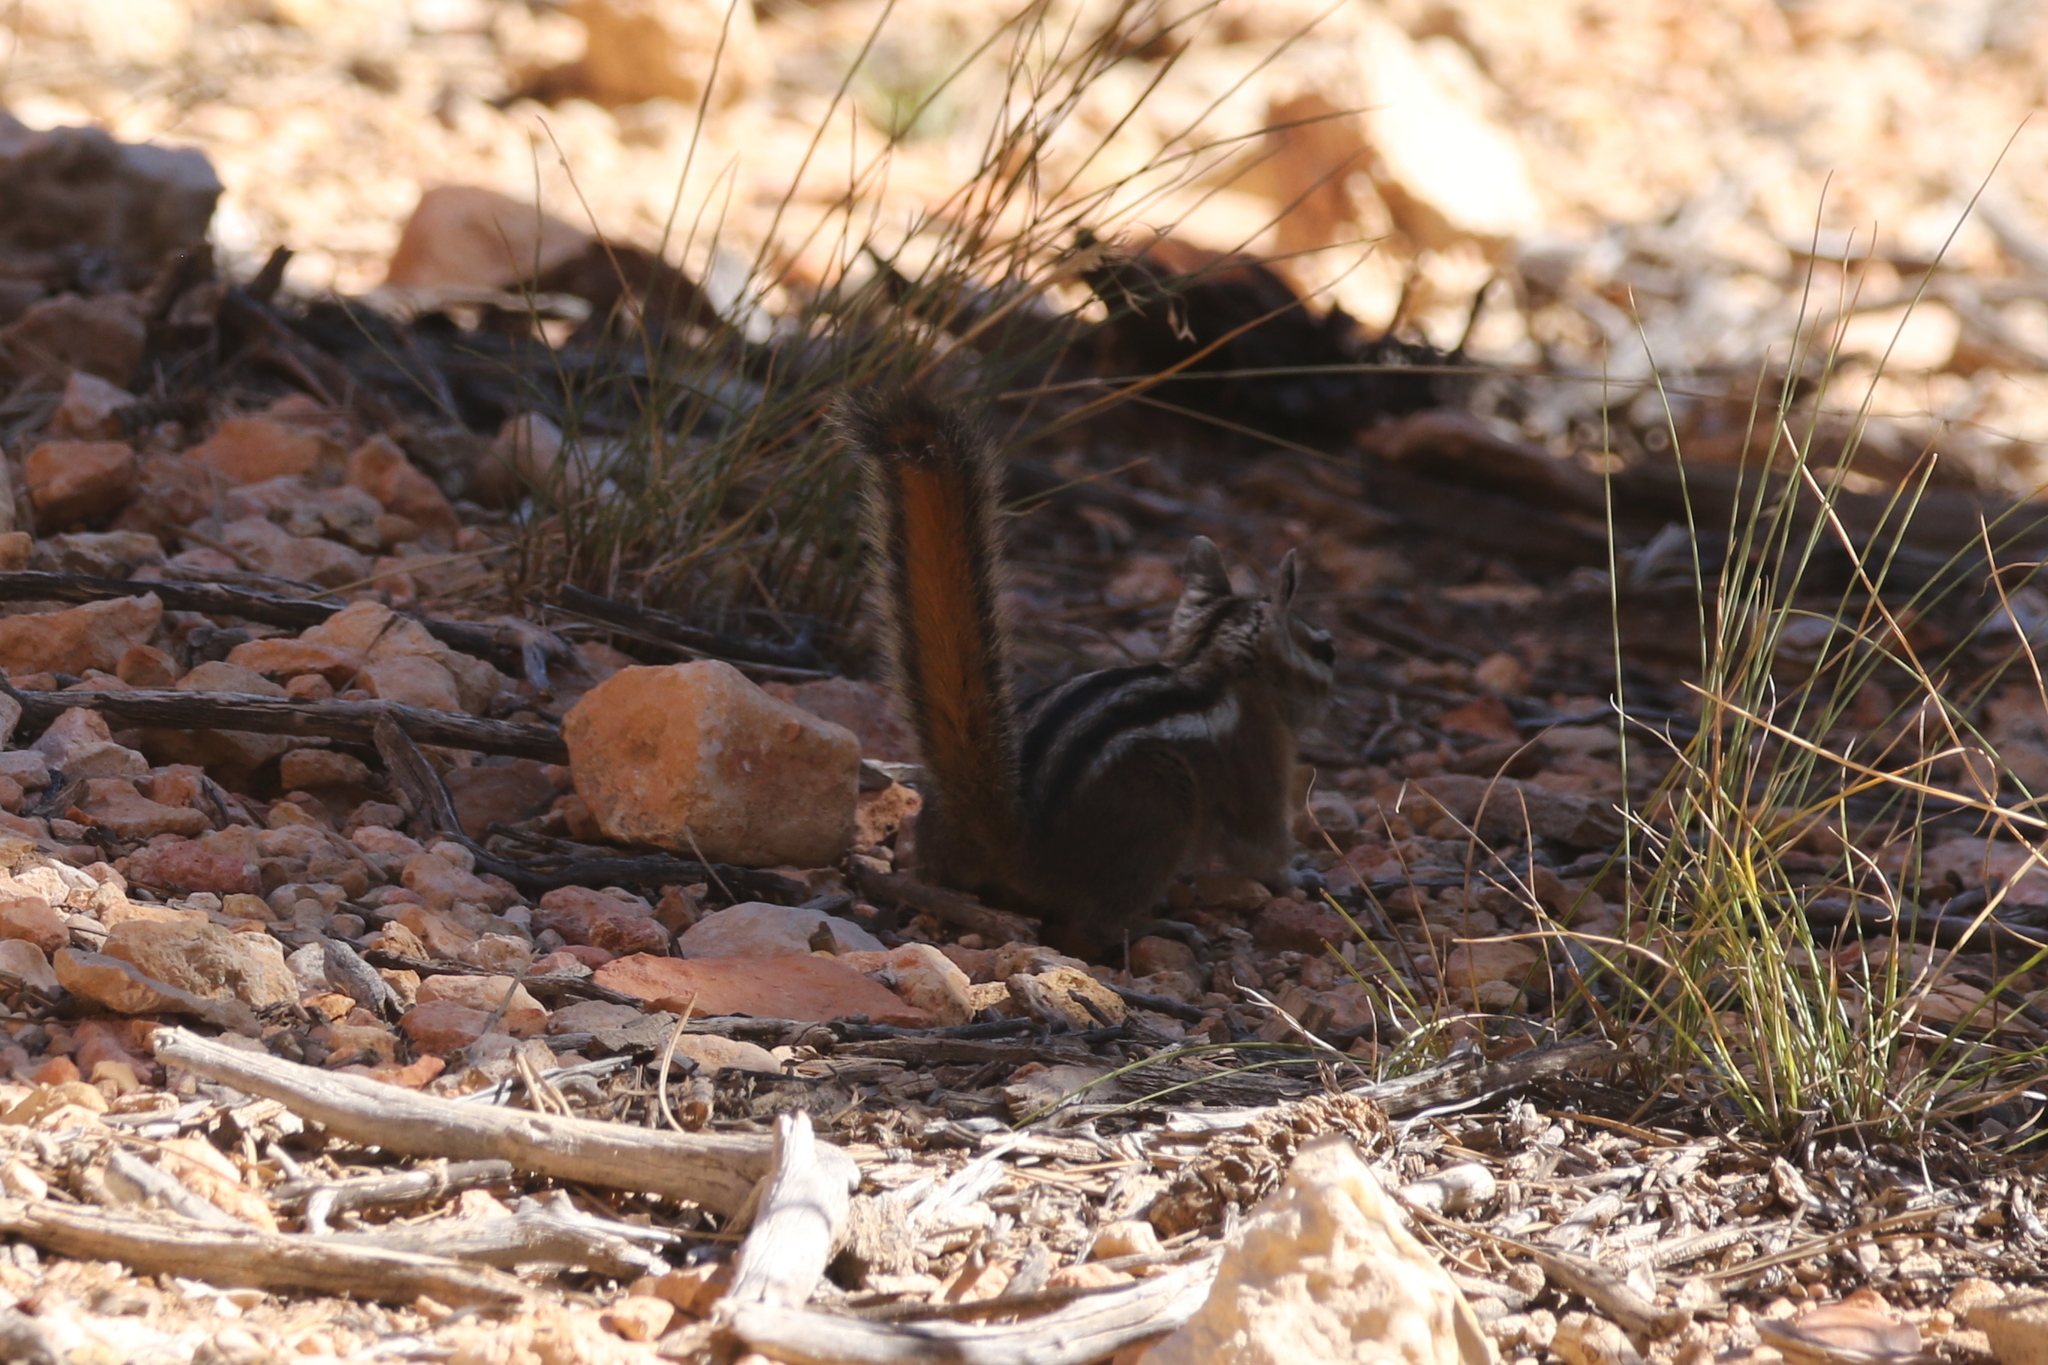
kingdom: Animalia
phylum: Chordata
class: Mammalia
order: Rodentia
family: Sciuridae
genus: Tamias
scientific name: Tamias umbrinus
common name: Uinta chipmunk
